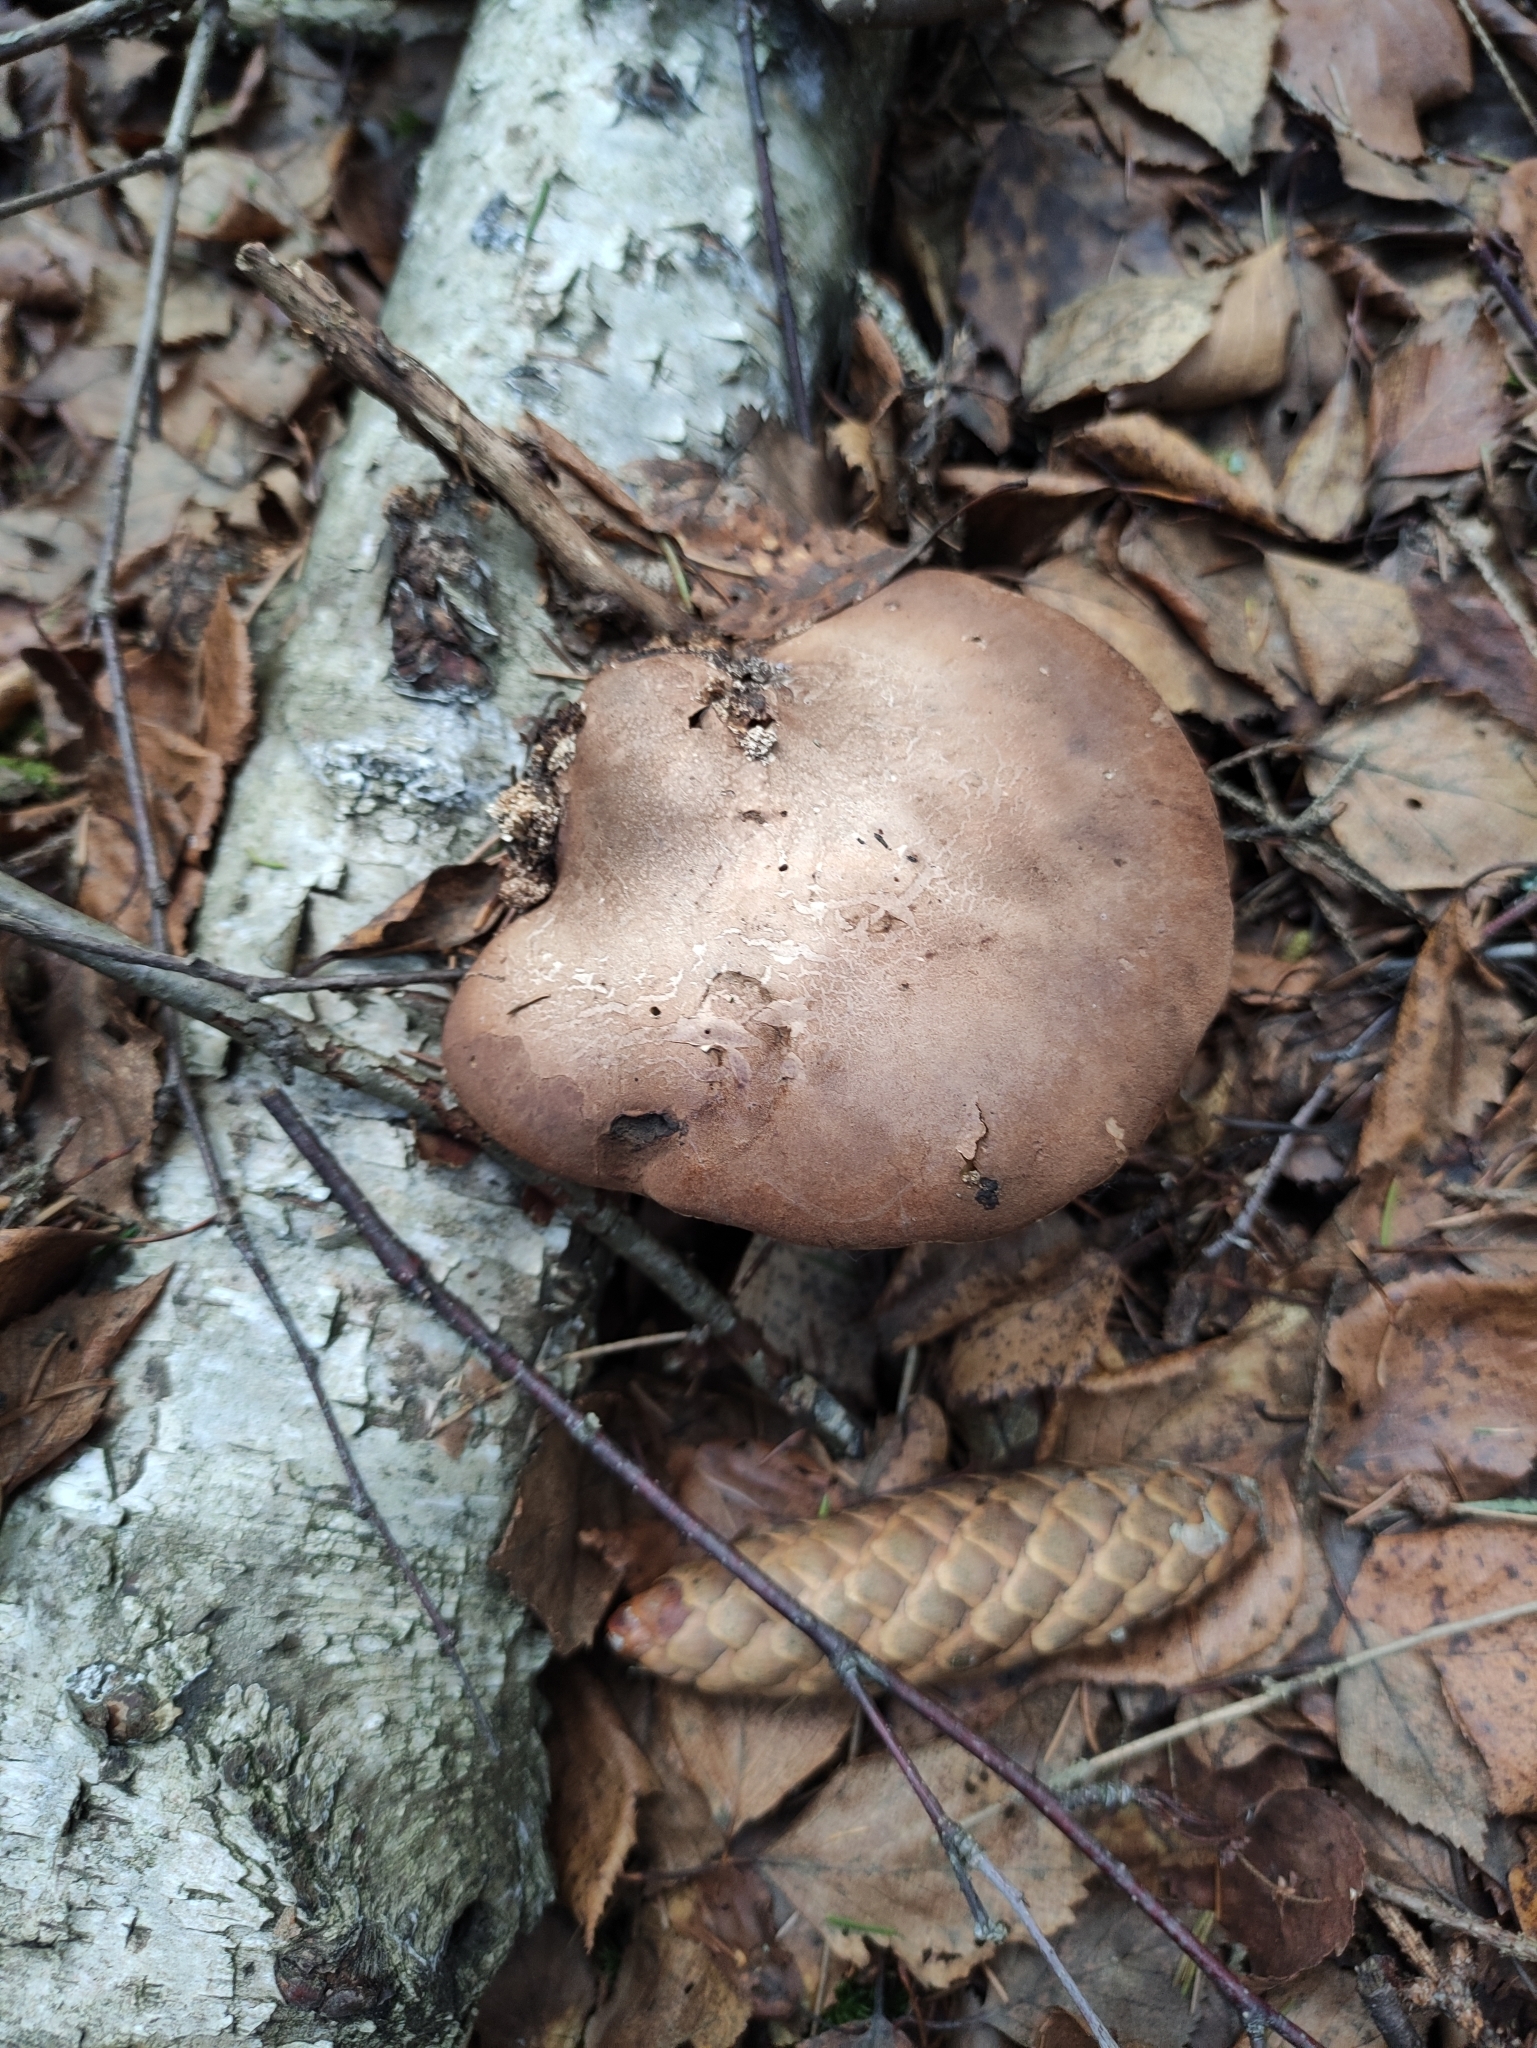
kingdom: Fungi
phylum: Basidiomycota
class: Agaricomycetes
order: Polyporales
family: Fomitopsidaceae
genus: Fomitopsis
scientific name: Fomitopsis betulina
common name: Birch polypore
